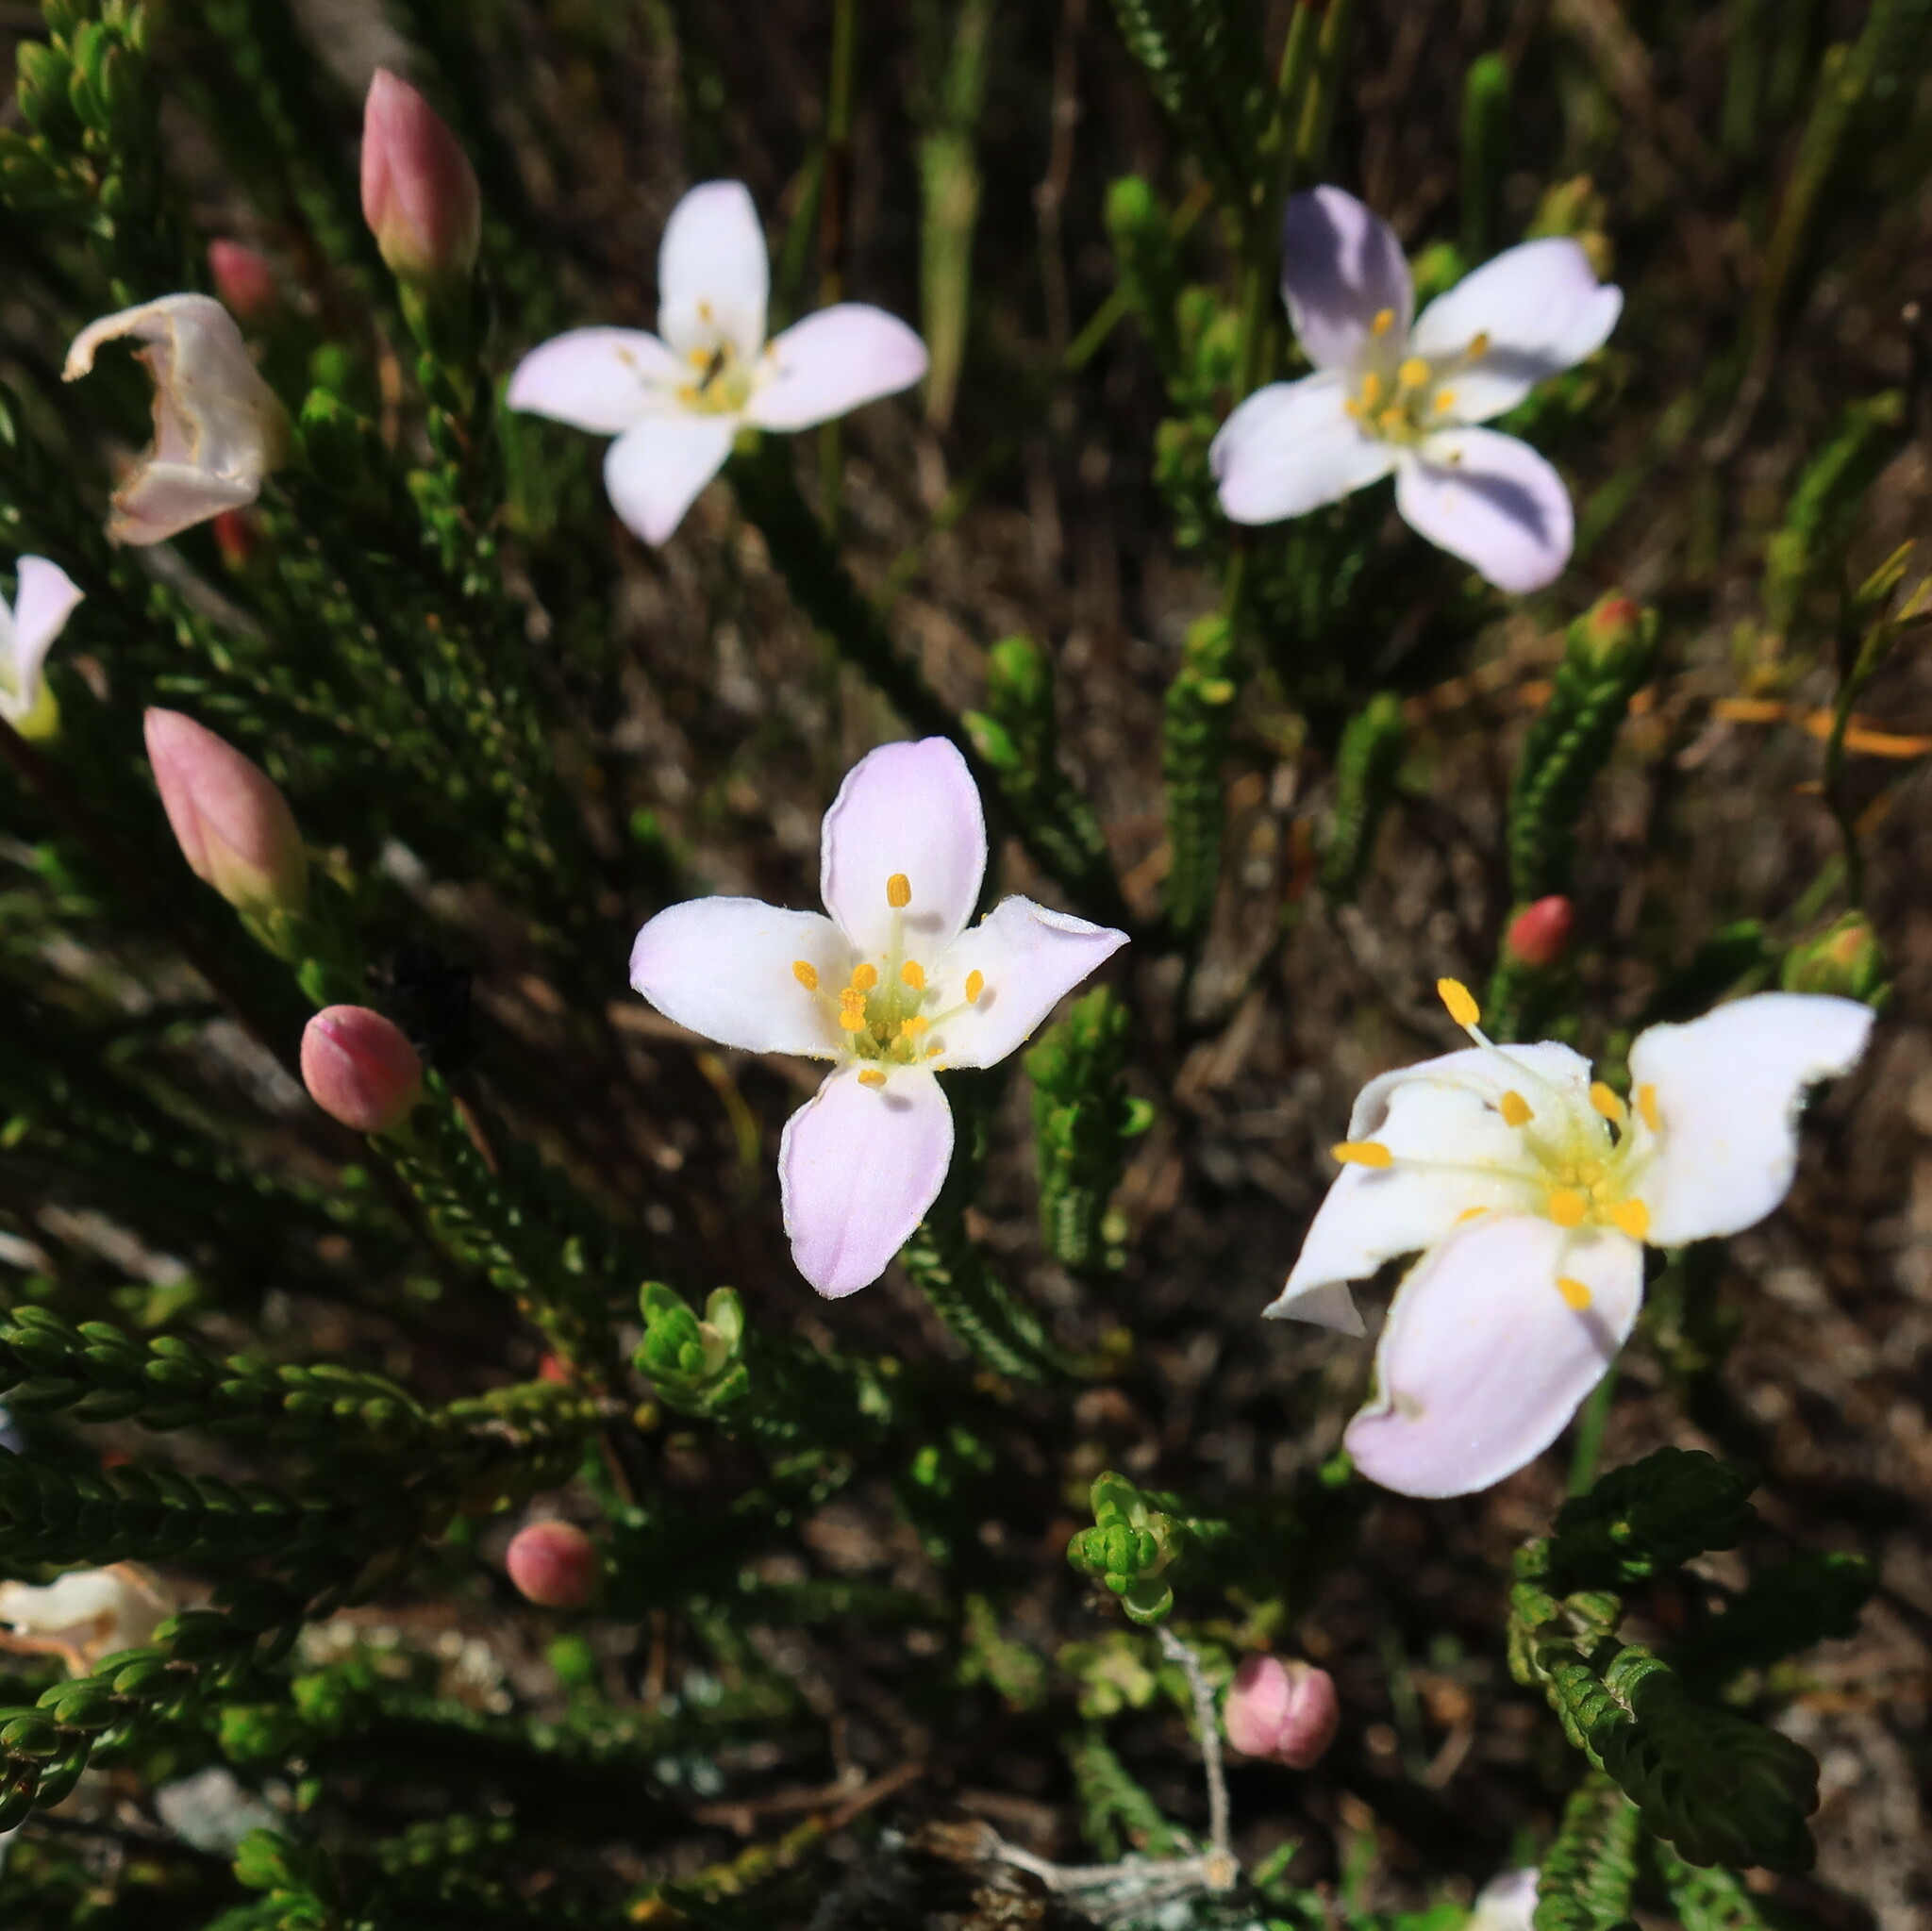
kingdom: Plantae
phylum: Tracheophyta
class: Magnoliopsida
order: Malvales
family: Thymelaeaceae
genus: Lachnaea
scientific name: Lachnaea grandiflora
